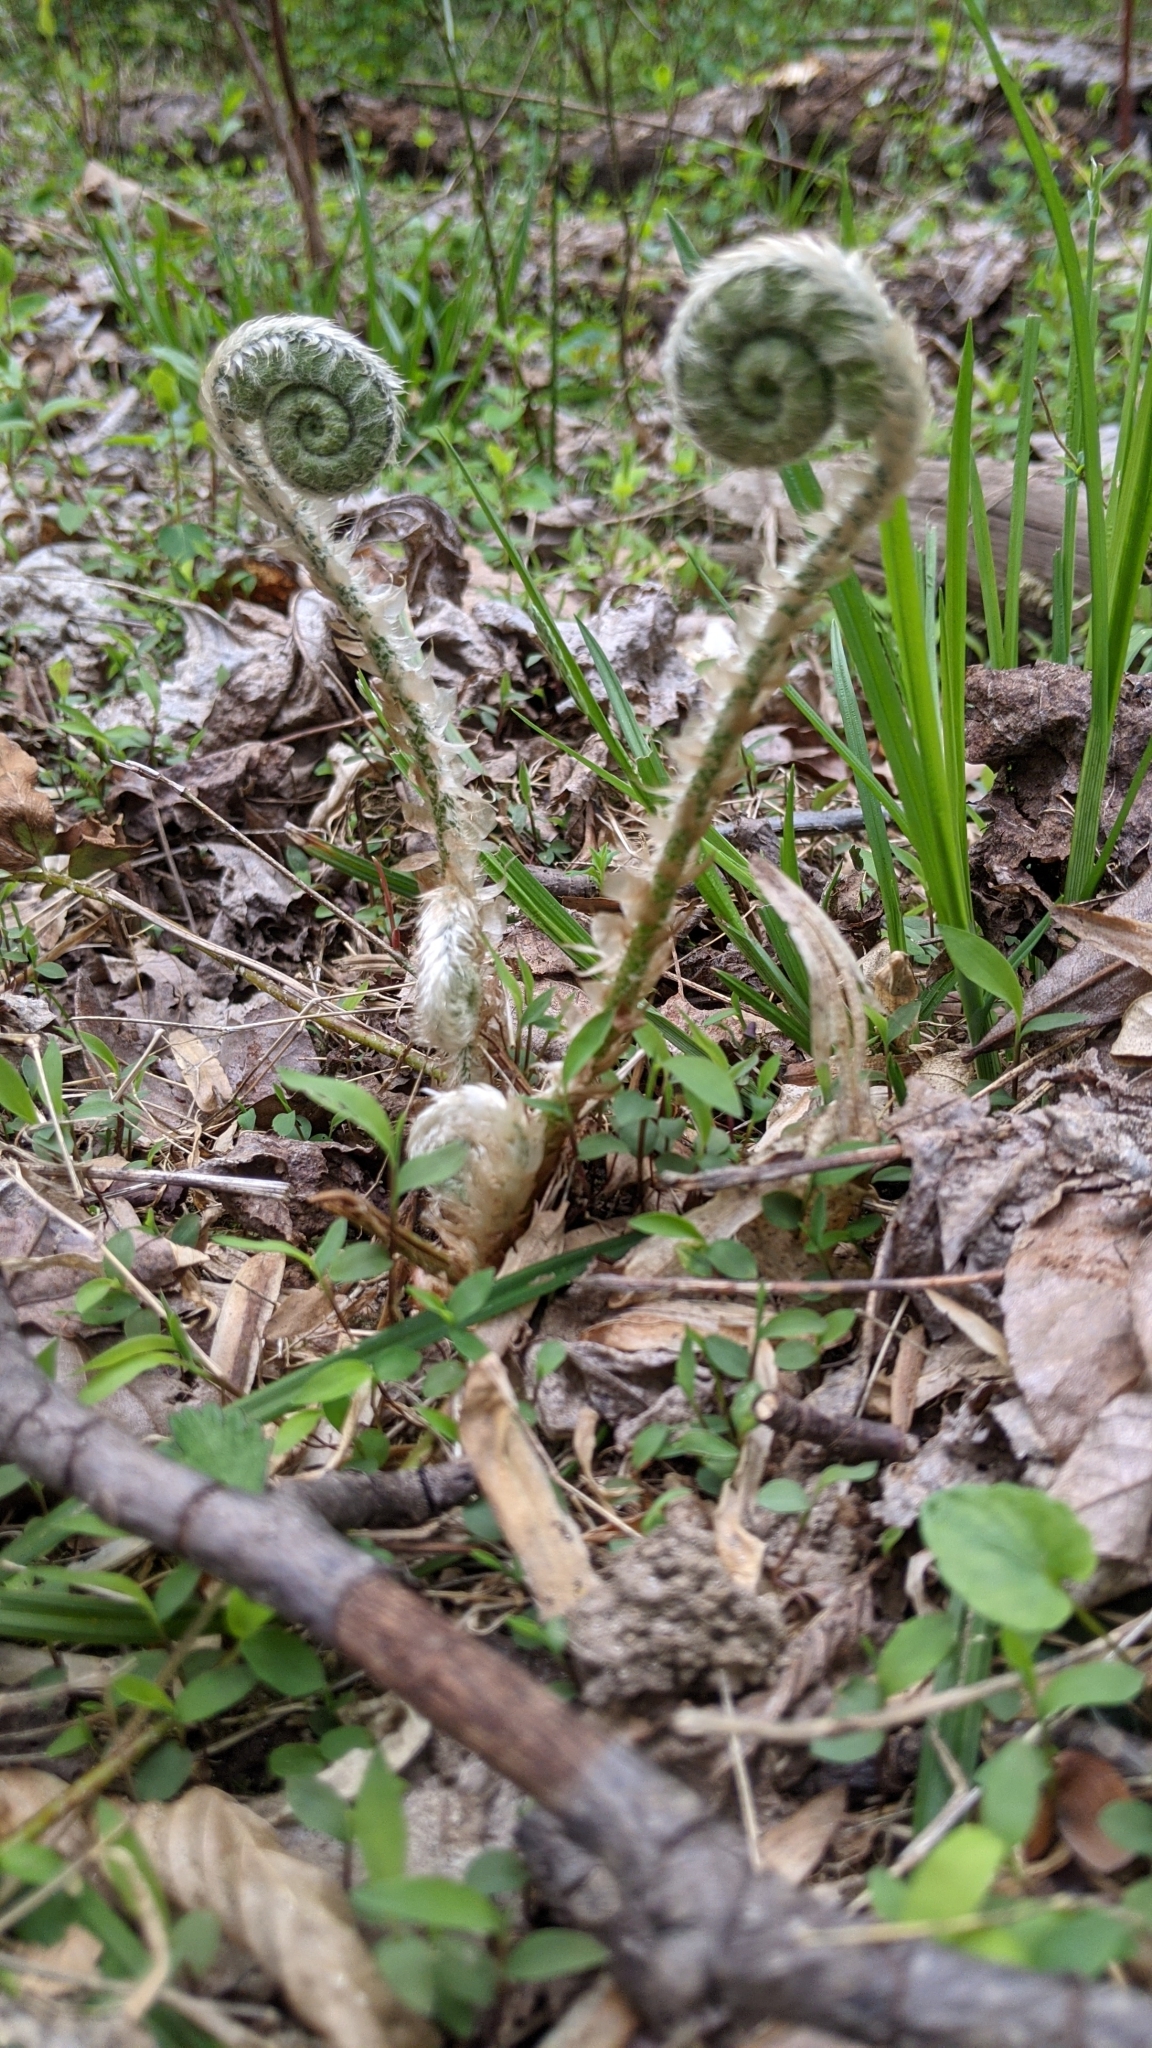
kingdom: Plantae
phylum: Tracheophyta
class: Polypodiopsida
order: Polypodiales
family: Dryopteridaceae
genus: Polystichum
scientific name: Polystichum acrostichoides
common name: Christmas fern
